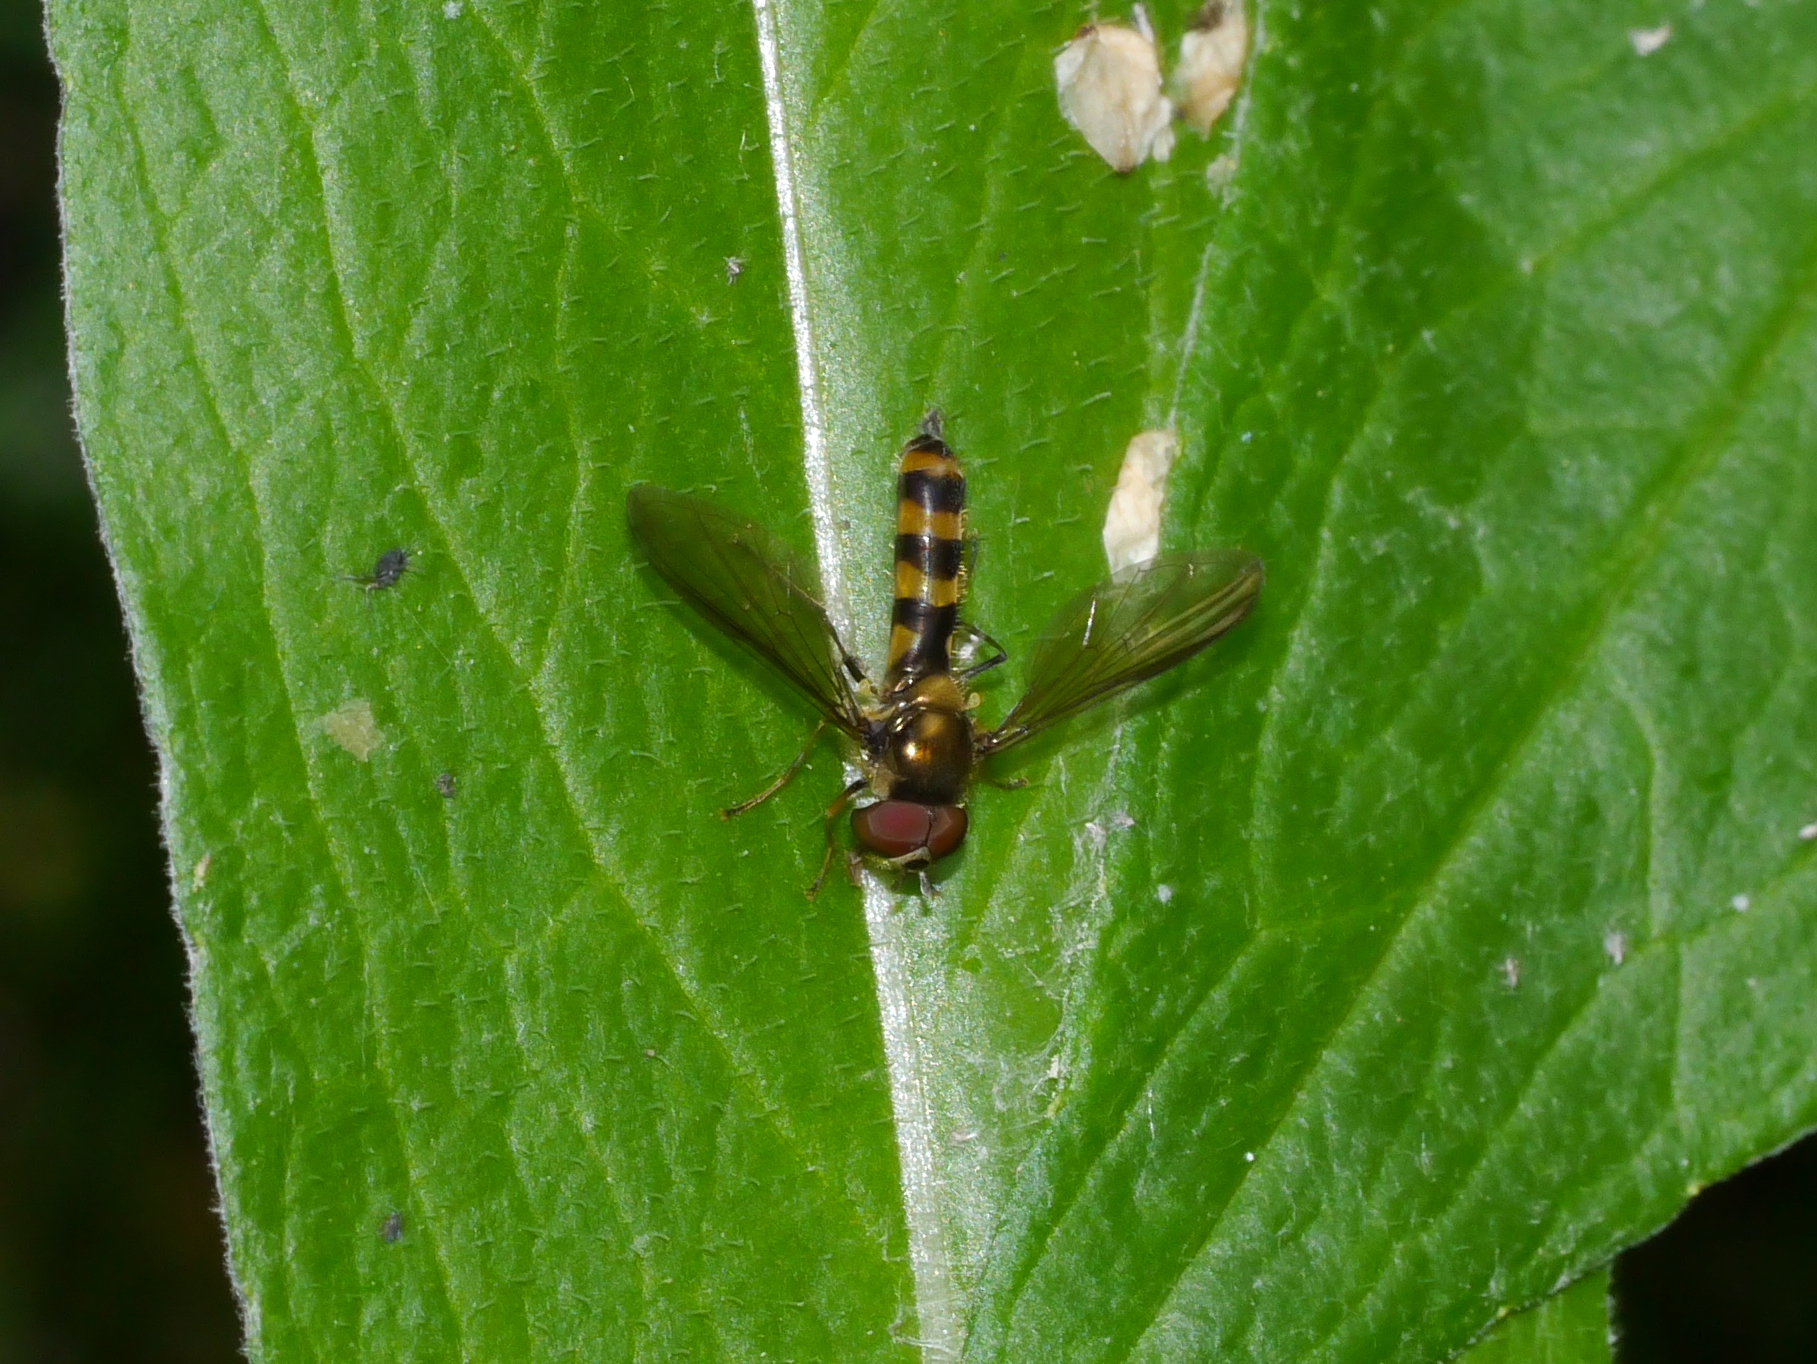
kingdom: Animalia
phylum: Arthropoda
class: Insecta
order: Diptera
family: Syrphidae
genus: Meliscaeva
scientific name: Meliscaeva cinctella
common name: American thintail fly
